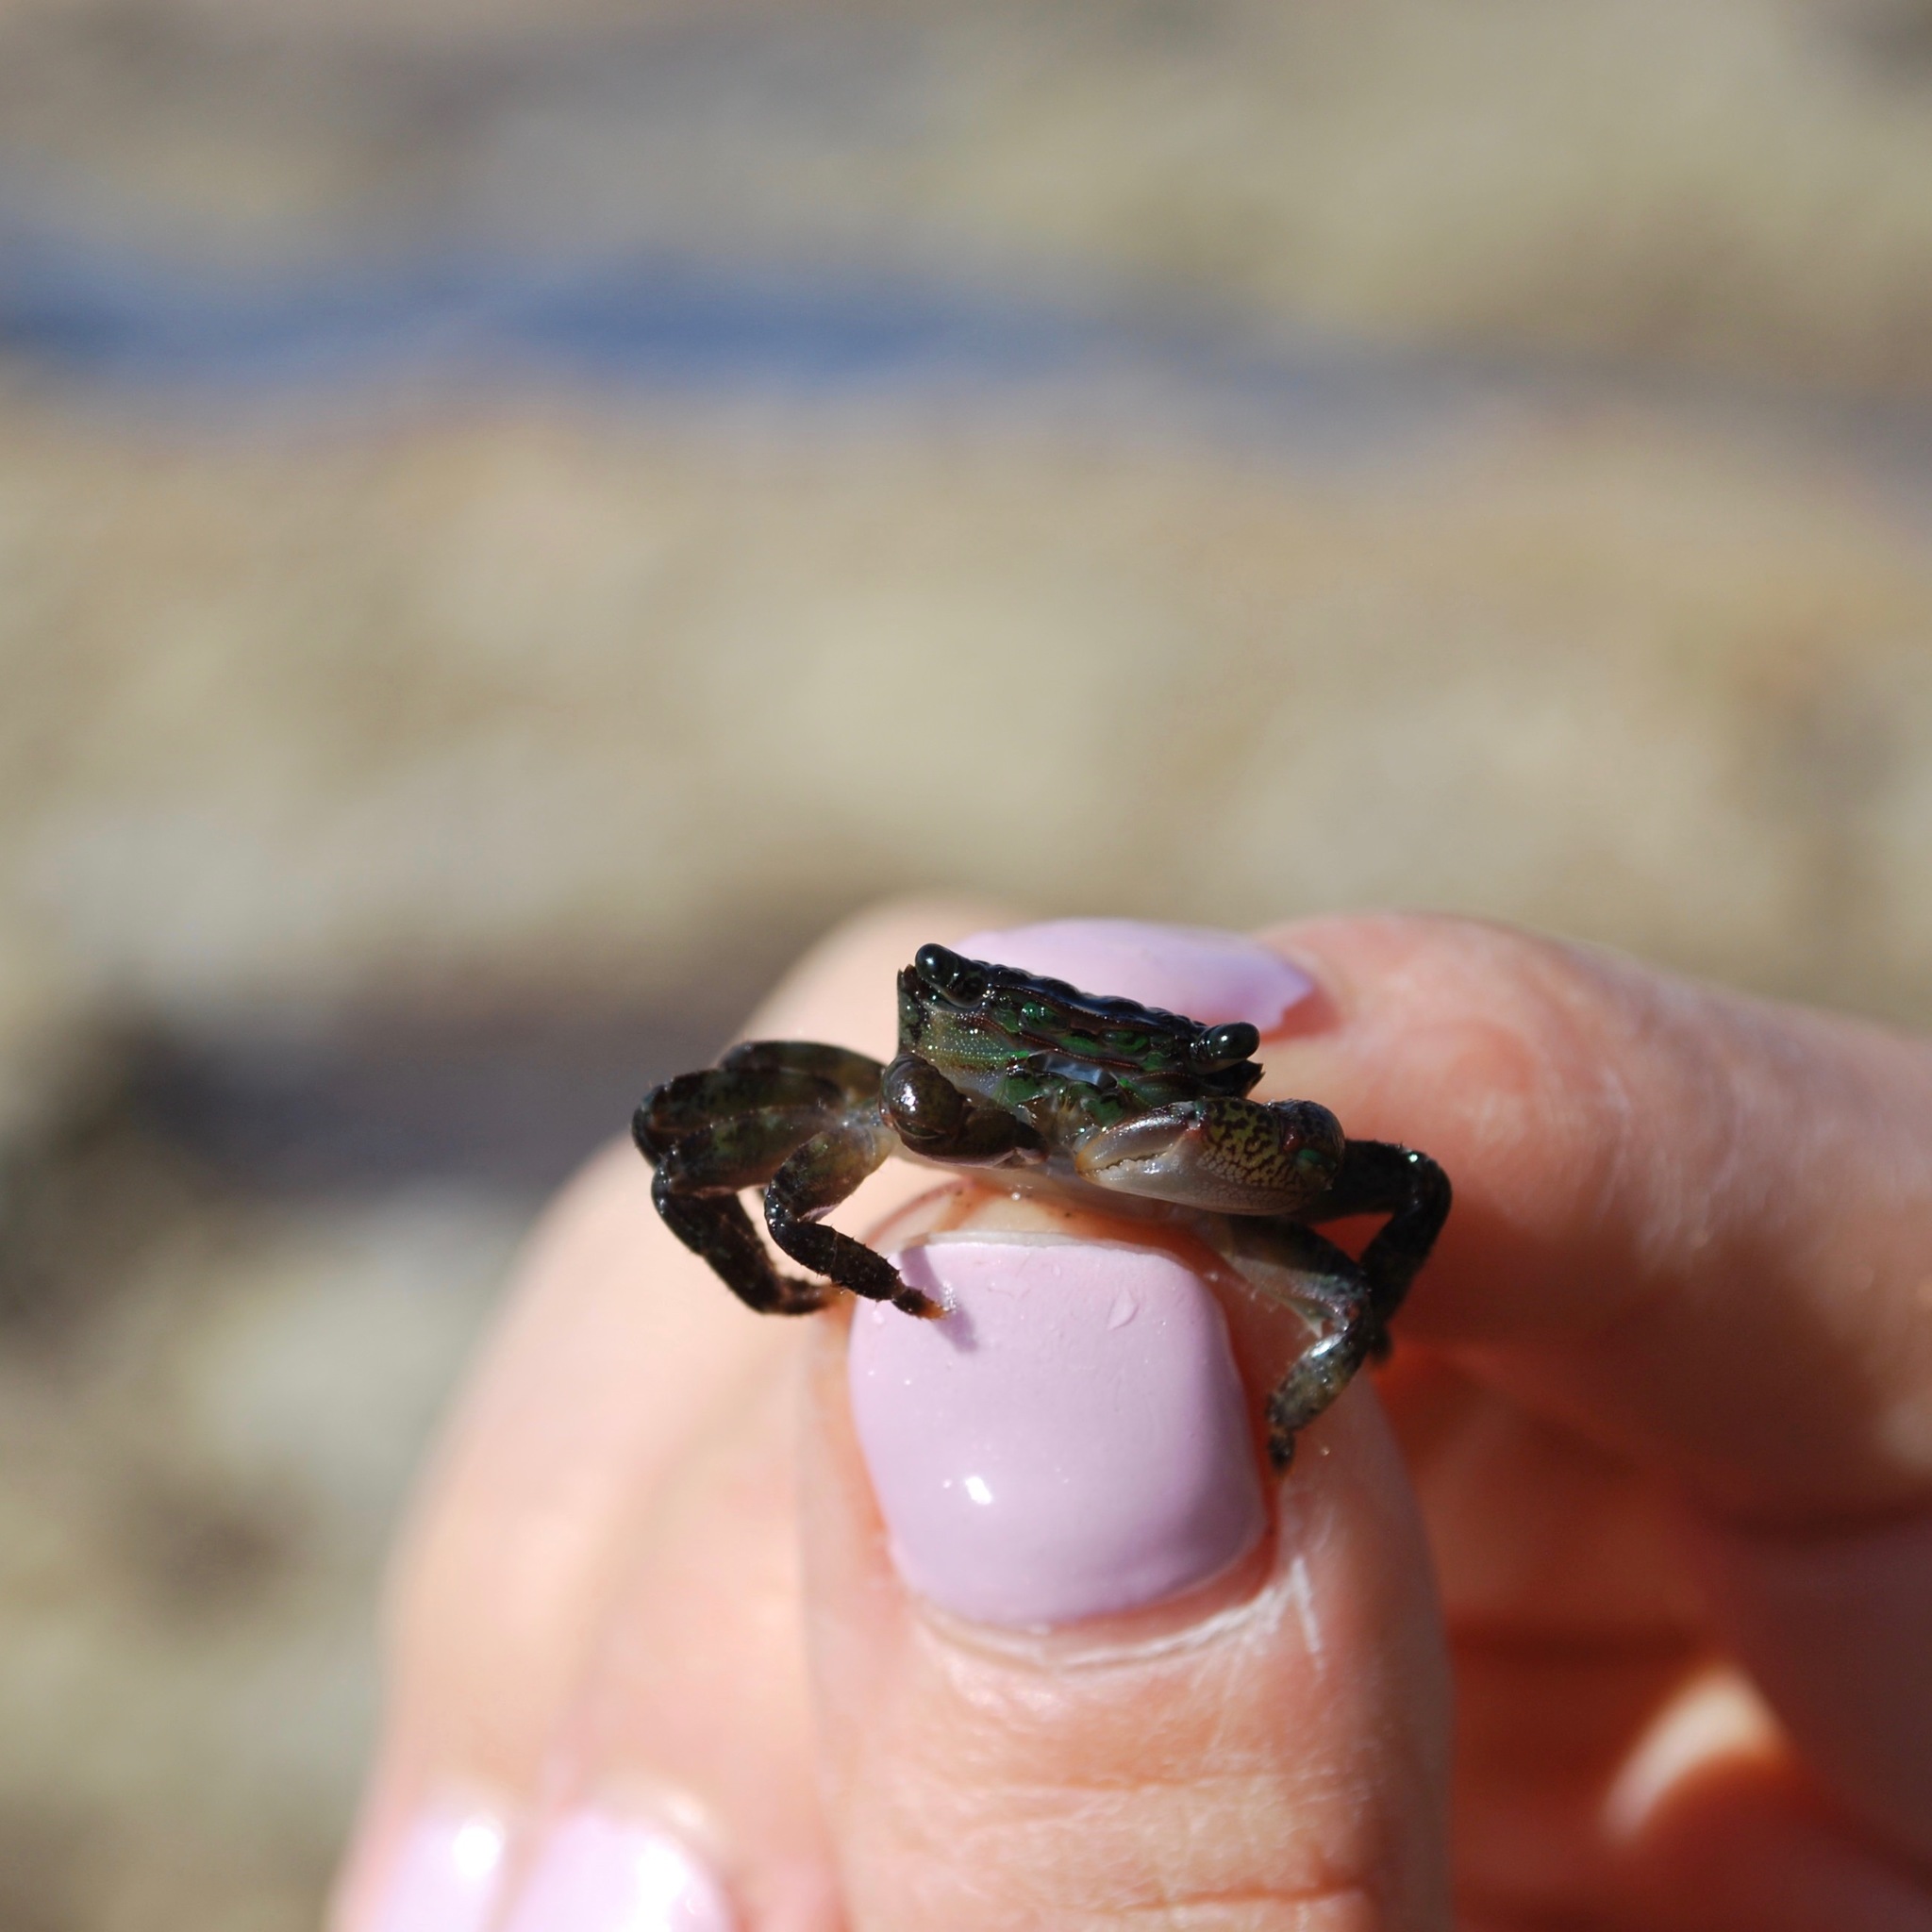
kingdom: Animalia
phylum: Arthropoda
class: Malacostraca
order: Decapoda
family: Grapsidae
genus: Pachygrapsus
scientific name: Pachygrapsus crassipes
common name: Striped shore crab
